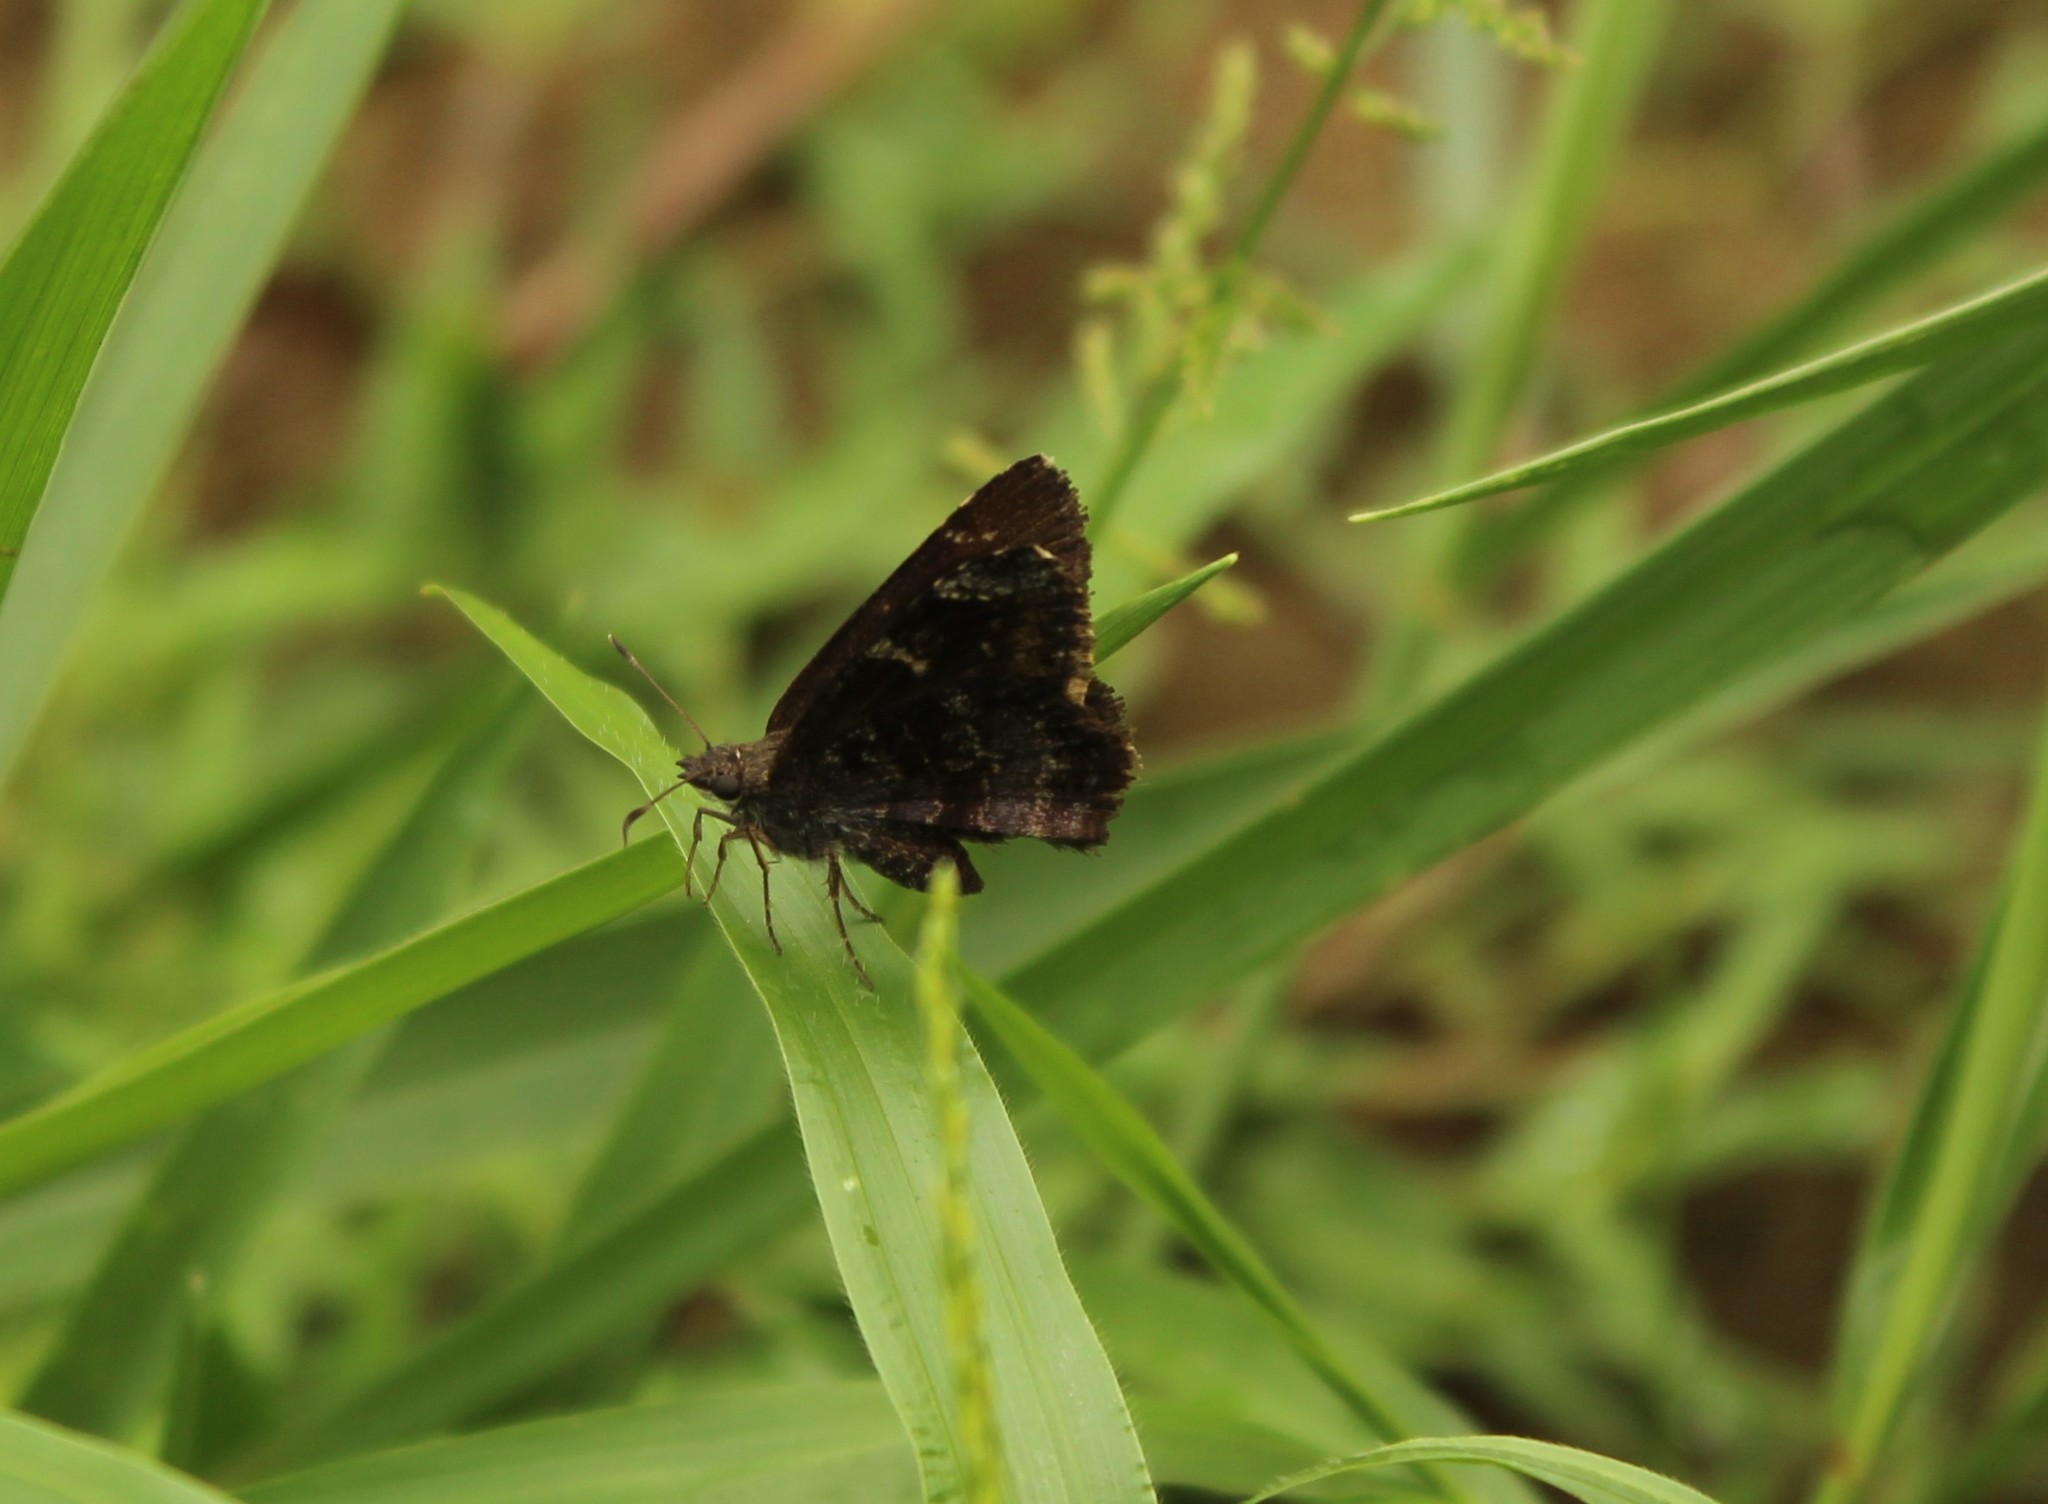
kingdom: Animalia
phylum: Arthropoda
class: Insecta
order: Lepidoptera
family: Hesperiidae
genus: Caicella
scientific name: Caicella calchas
